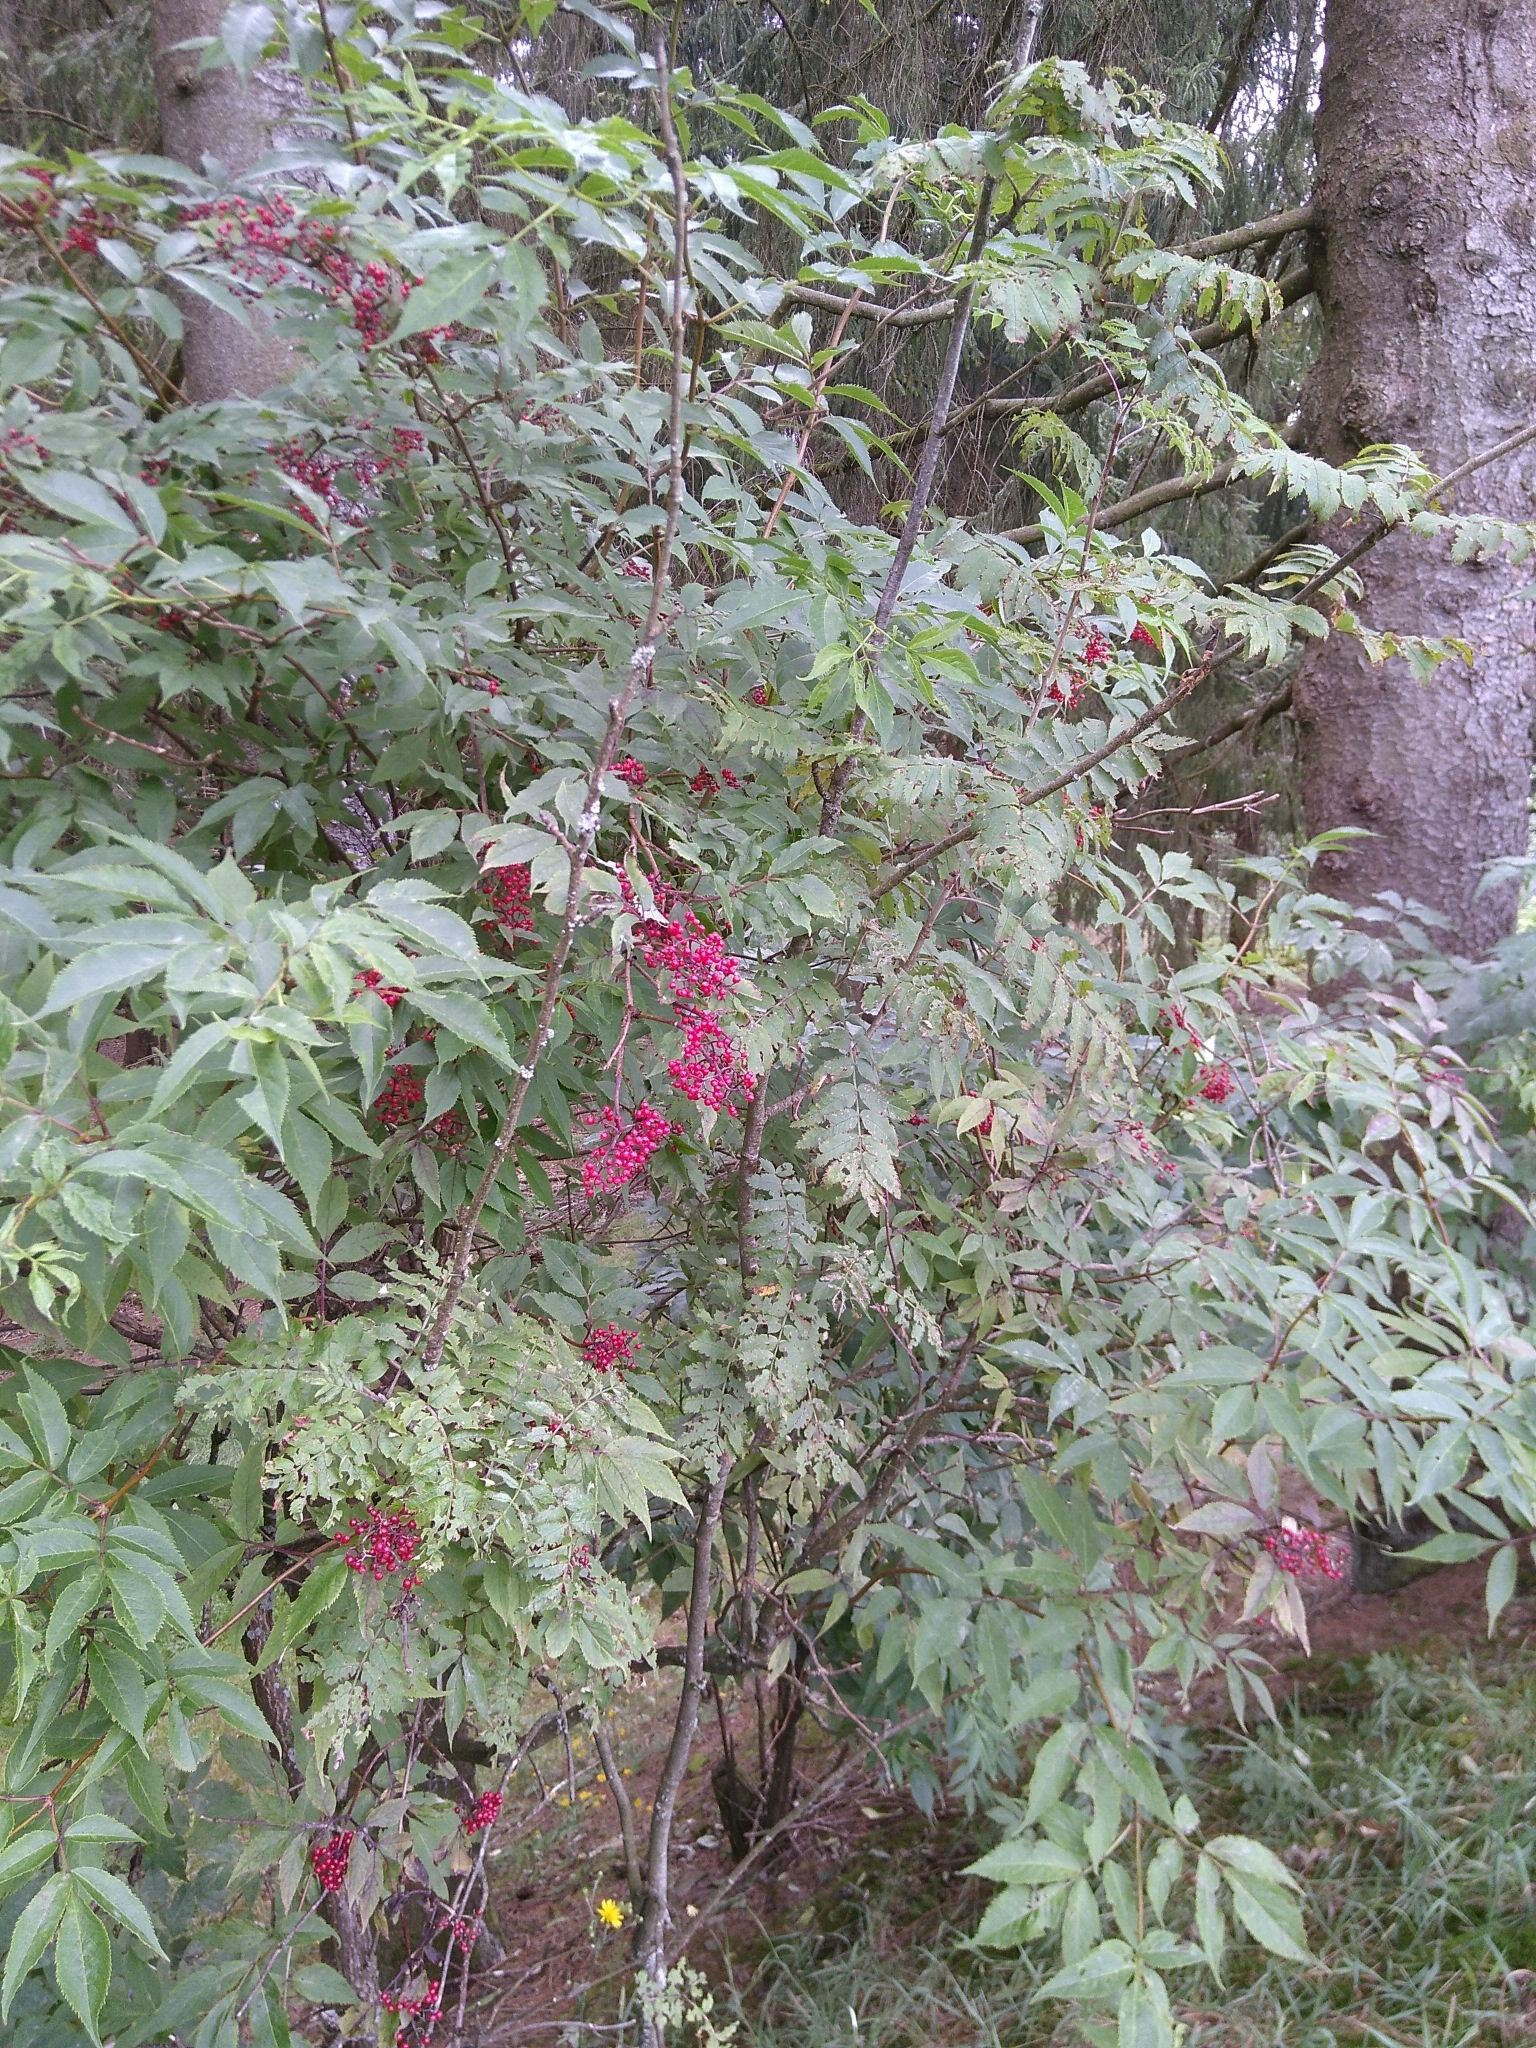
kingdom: Plantae
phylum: Tracheophyta
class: Magnoliopsida
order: Dipsacales
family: Viburnaceae
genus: Sambucus
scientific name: Sambucus racemosa
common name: Red-berried elder
